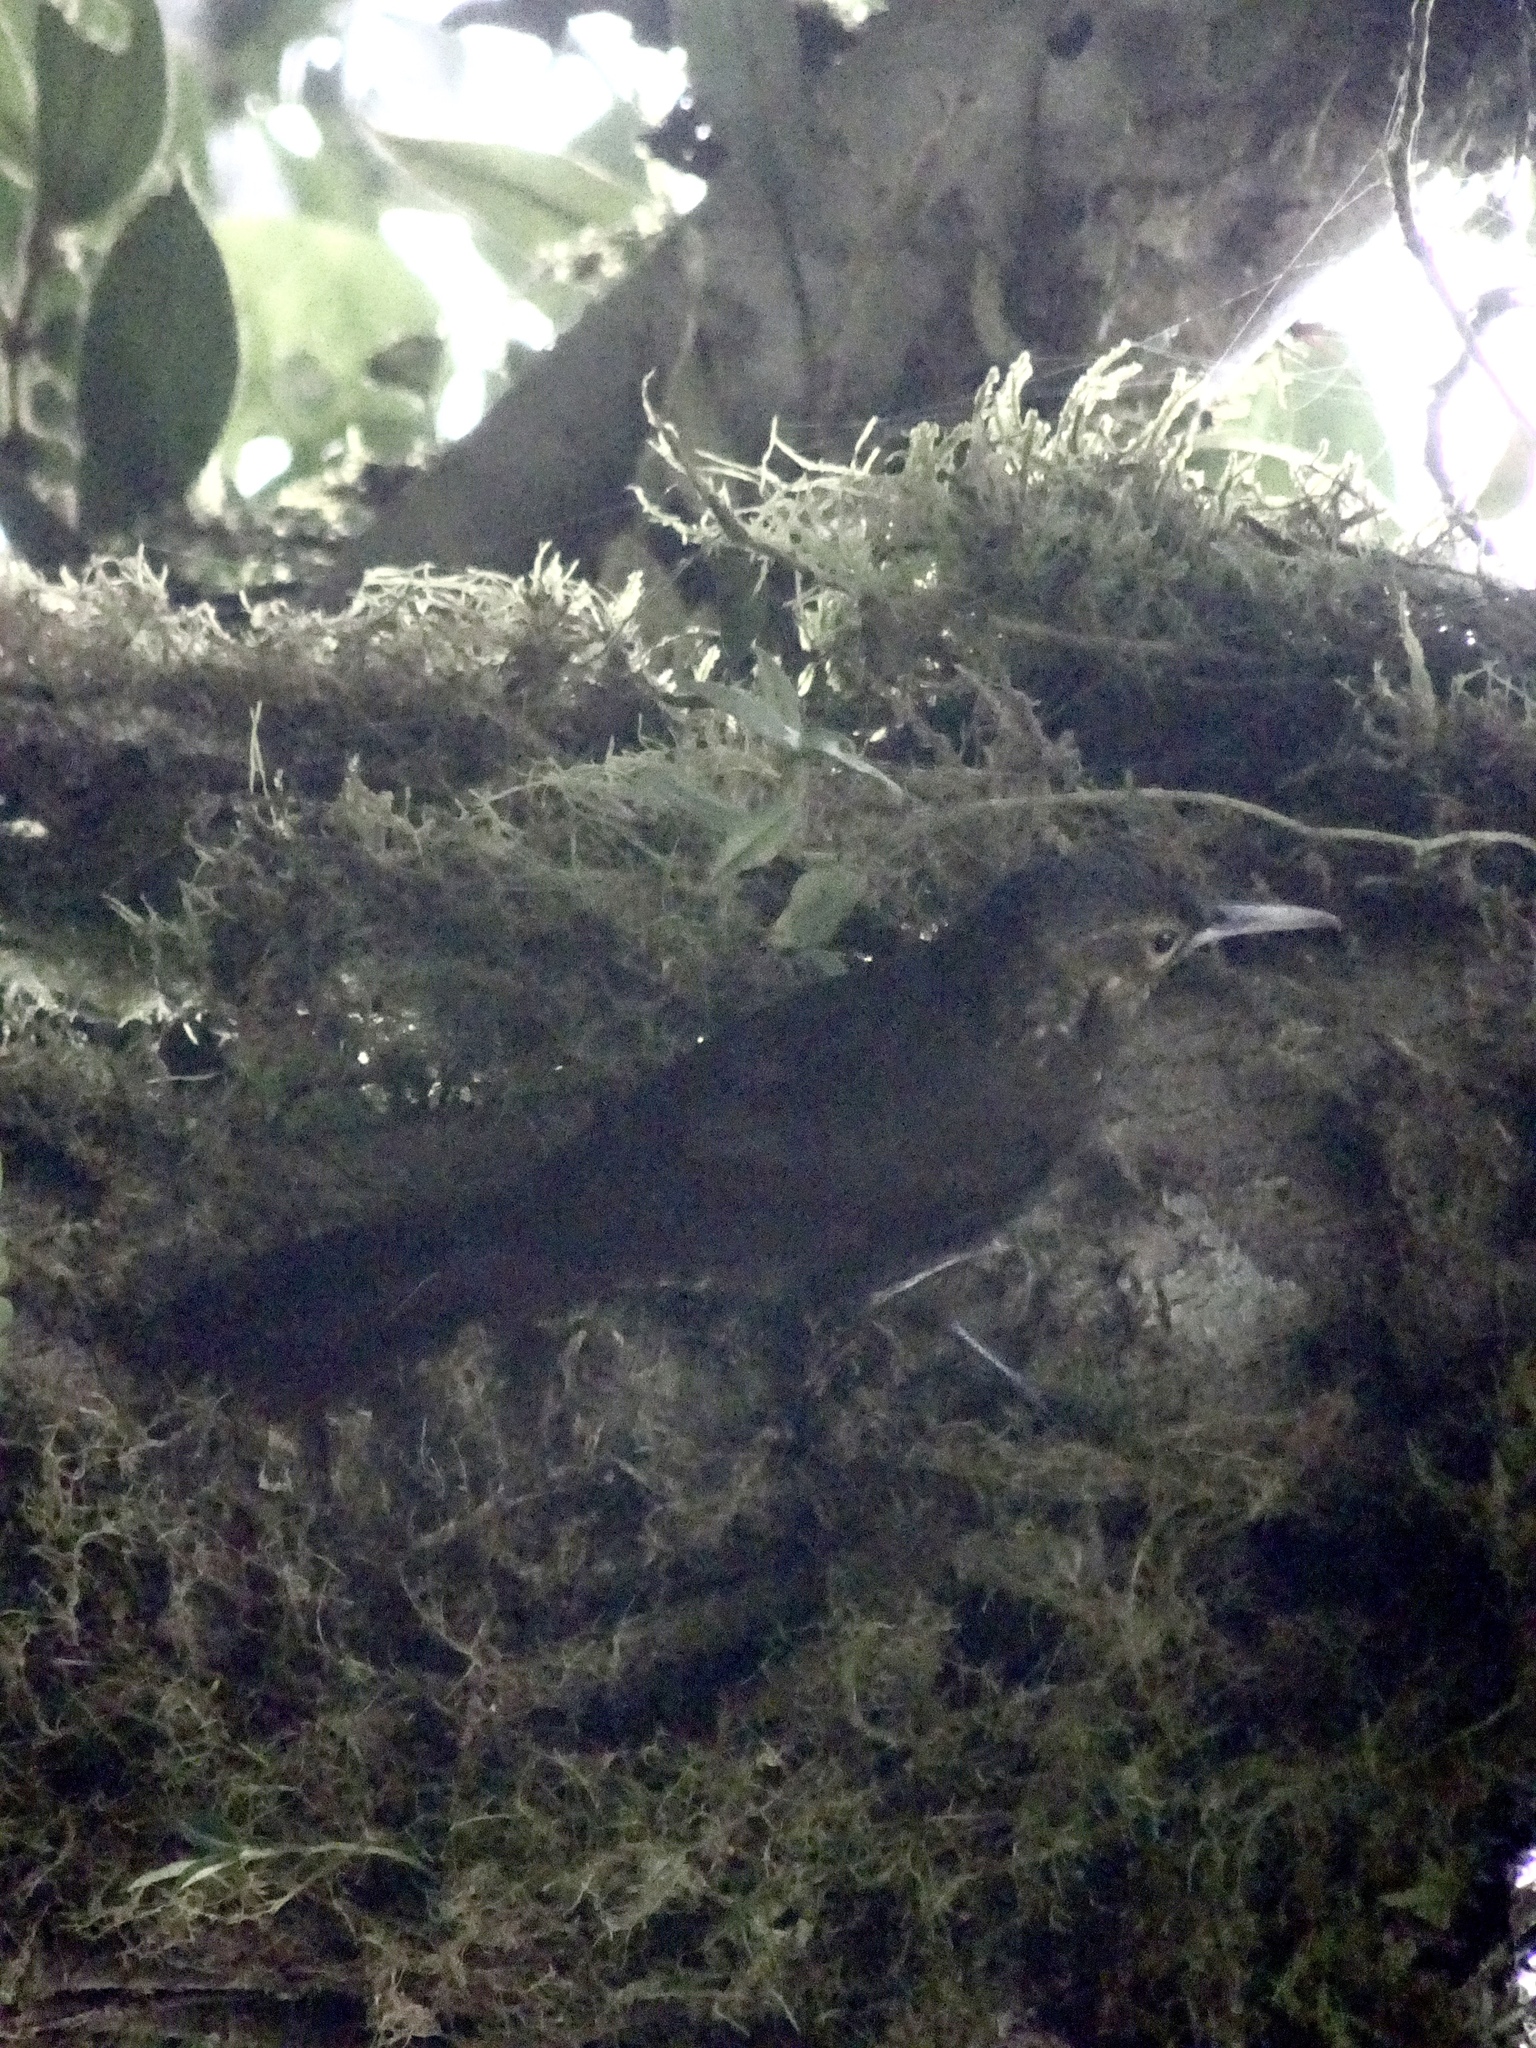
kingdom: Animalia
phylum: Chordata
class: Aves
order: Passeriformes
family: Furnariidae
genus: Xiphorhynchus
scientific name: Xiphorhynchus erythropygius
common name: Spotted woodcreeper
